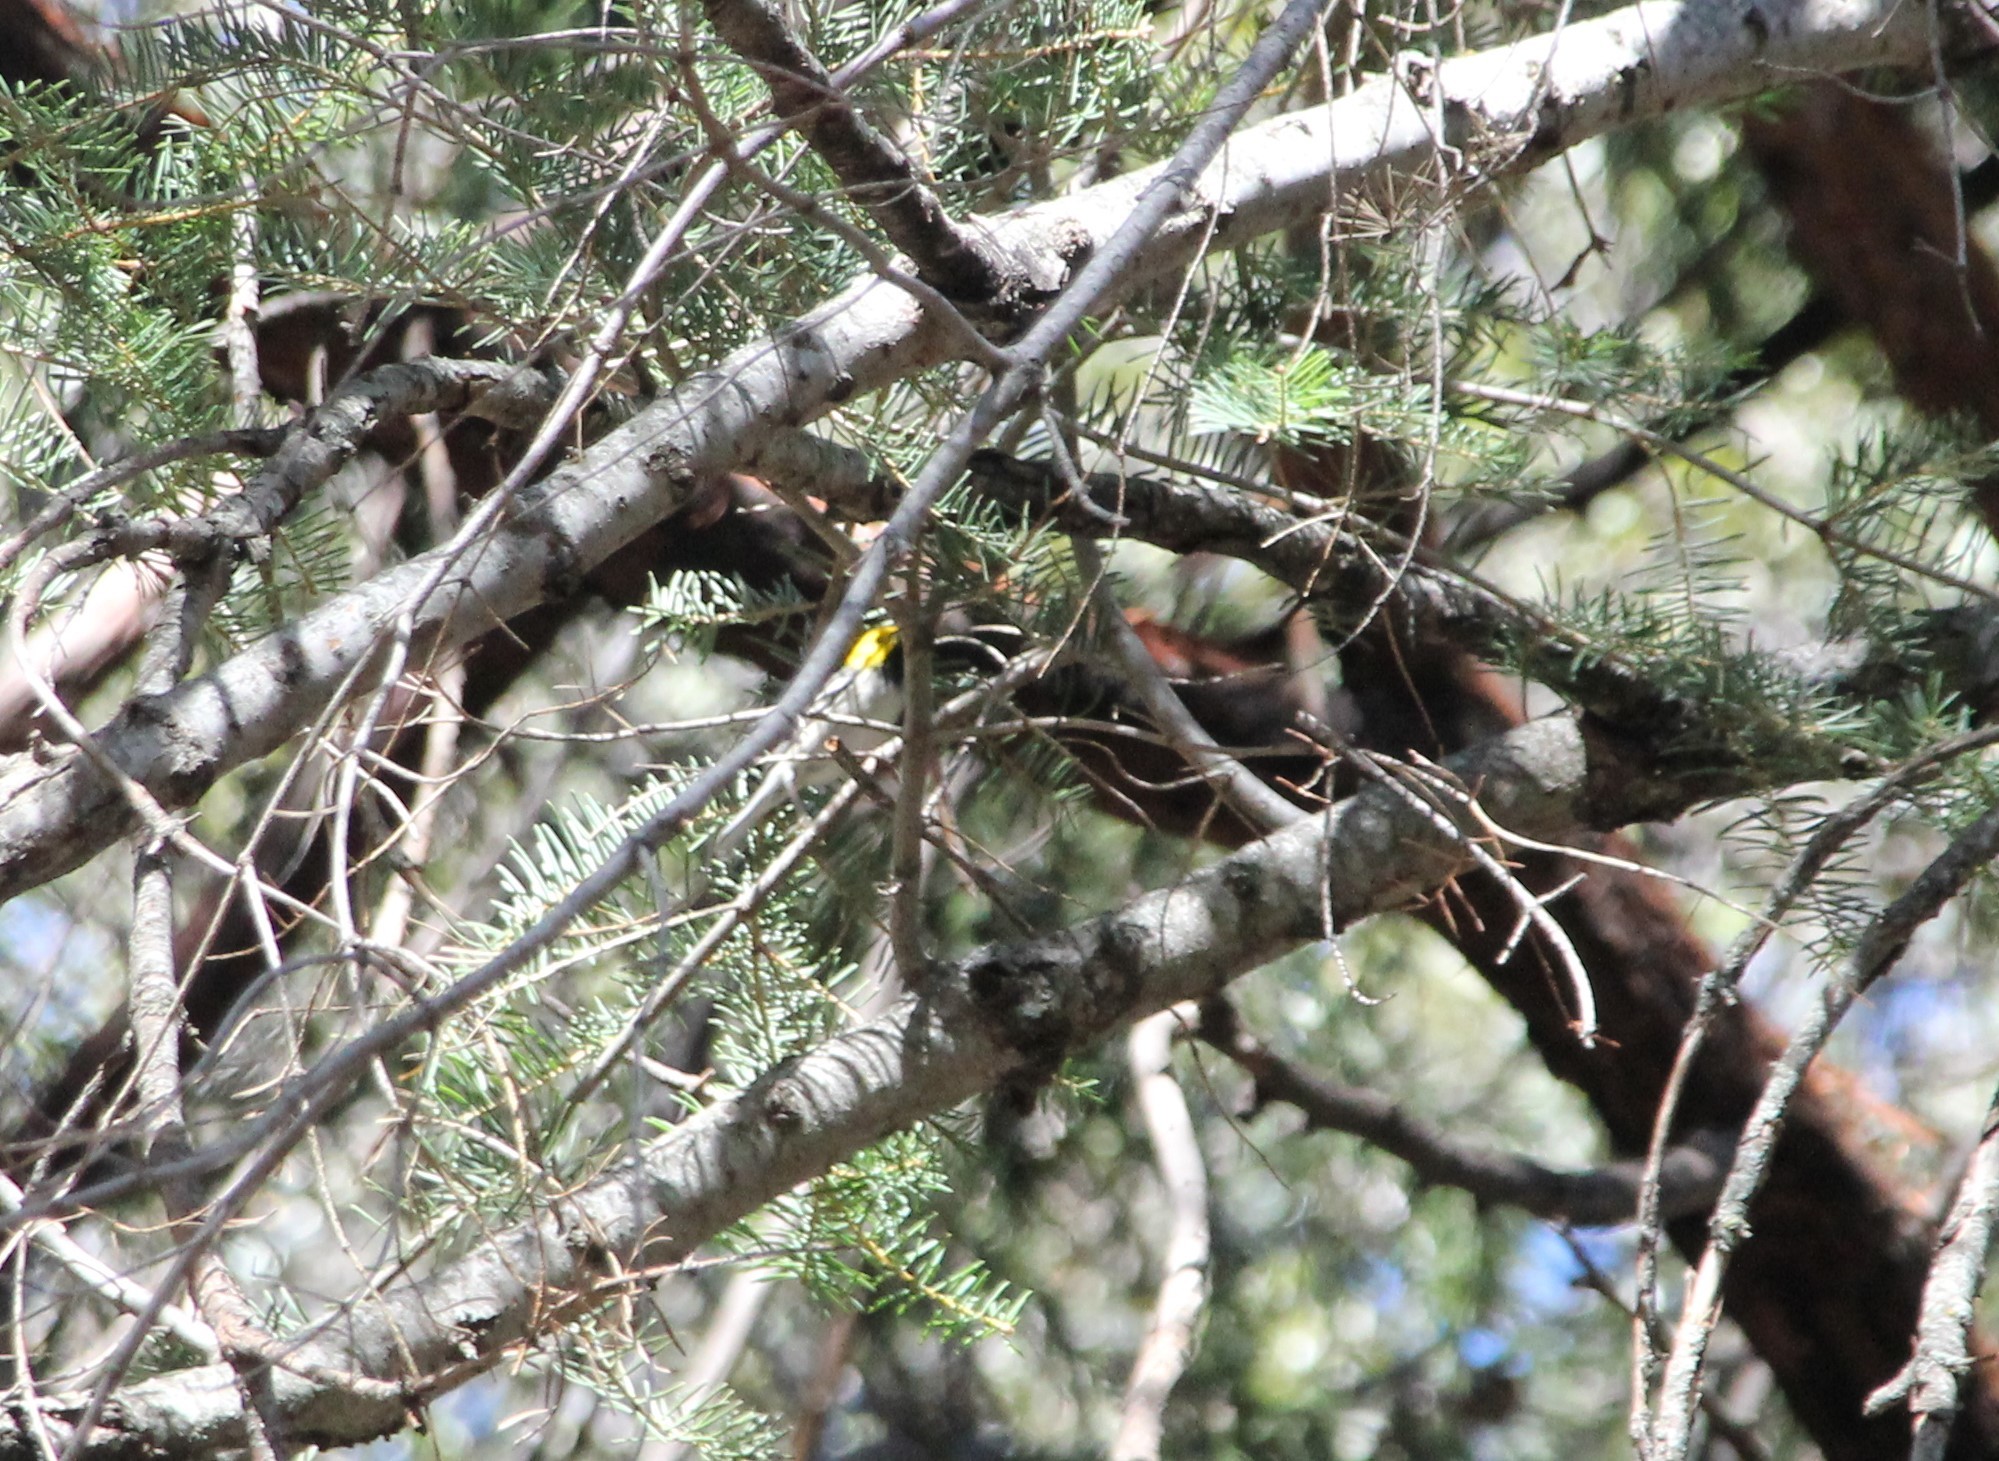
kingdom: Animalia
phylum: Chordata
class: Aves
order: Passeriformes
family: Parulidae
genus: Setophaga
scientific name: Setophaga occidentalis
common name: Hermit warbler
